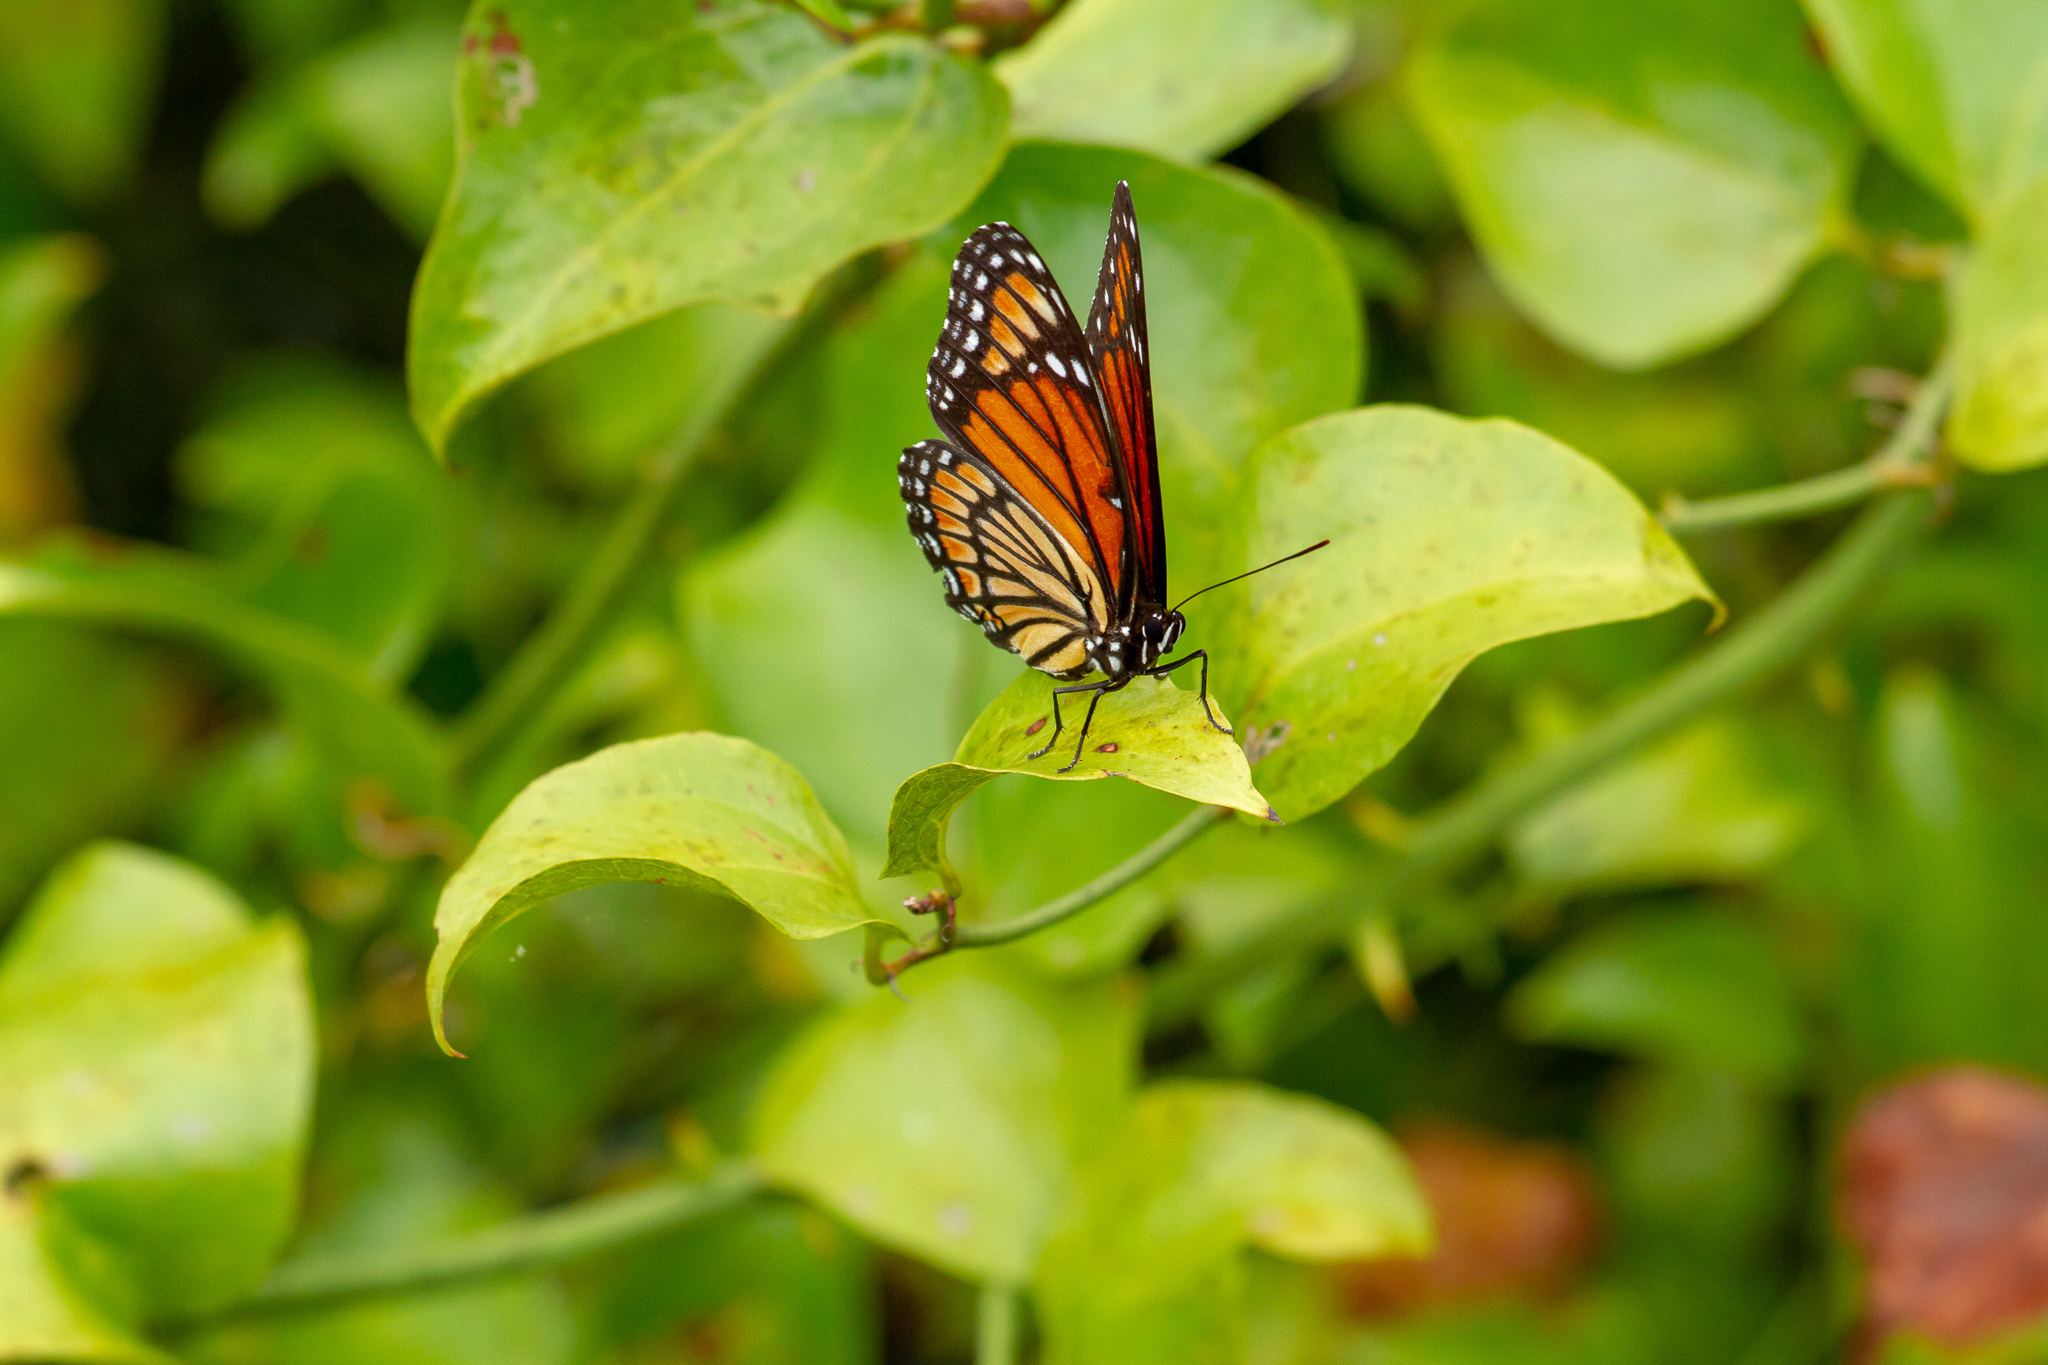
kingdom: Animalia
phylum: Arthropoda
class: Insecta
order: Lepidoptera
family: Nymphalidae
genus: Limenitis
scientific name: Limenitis archippus
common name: Viceroy
